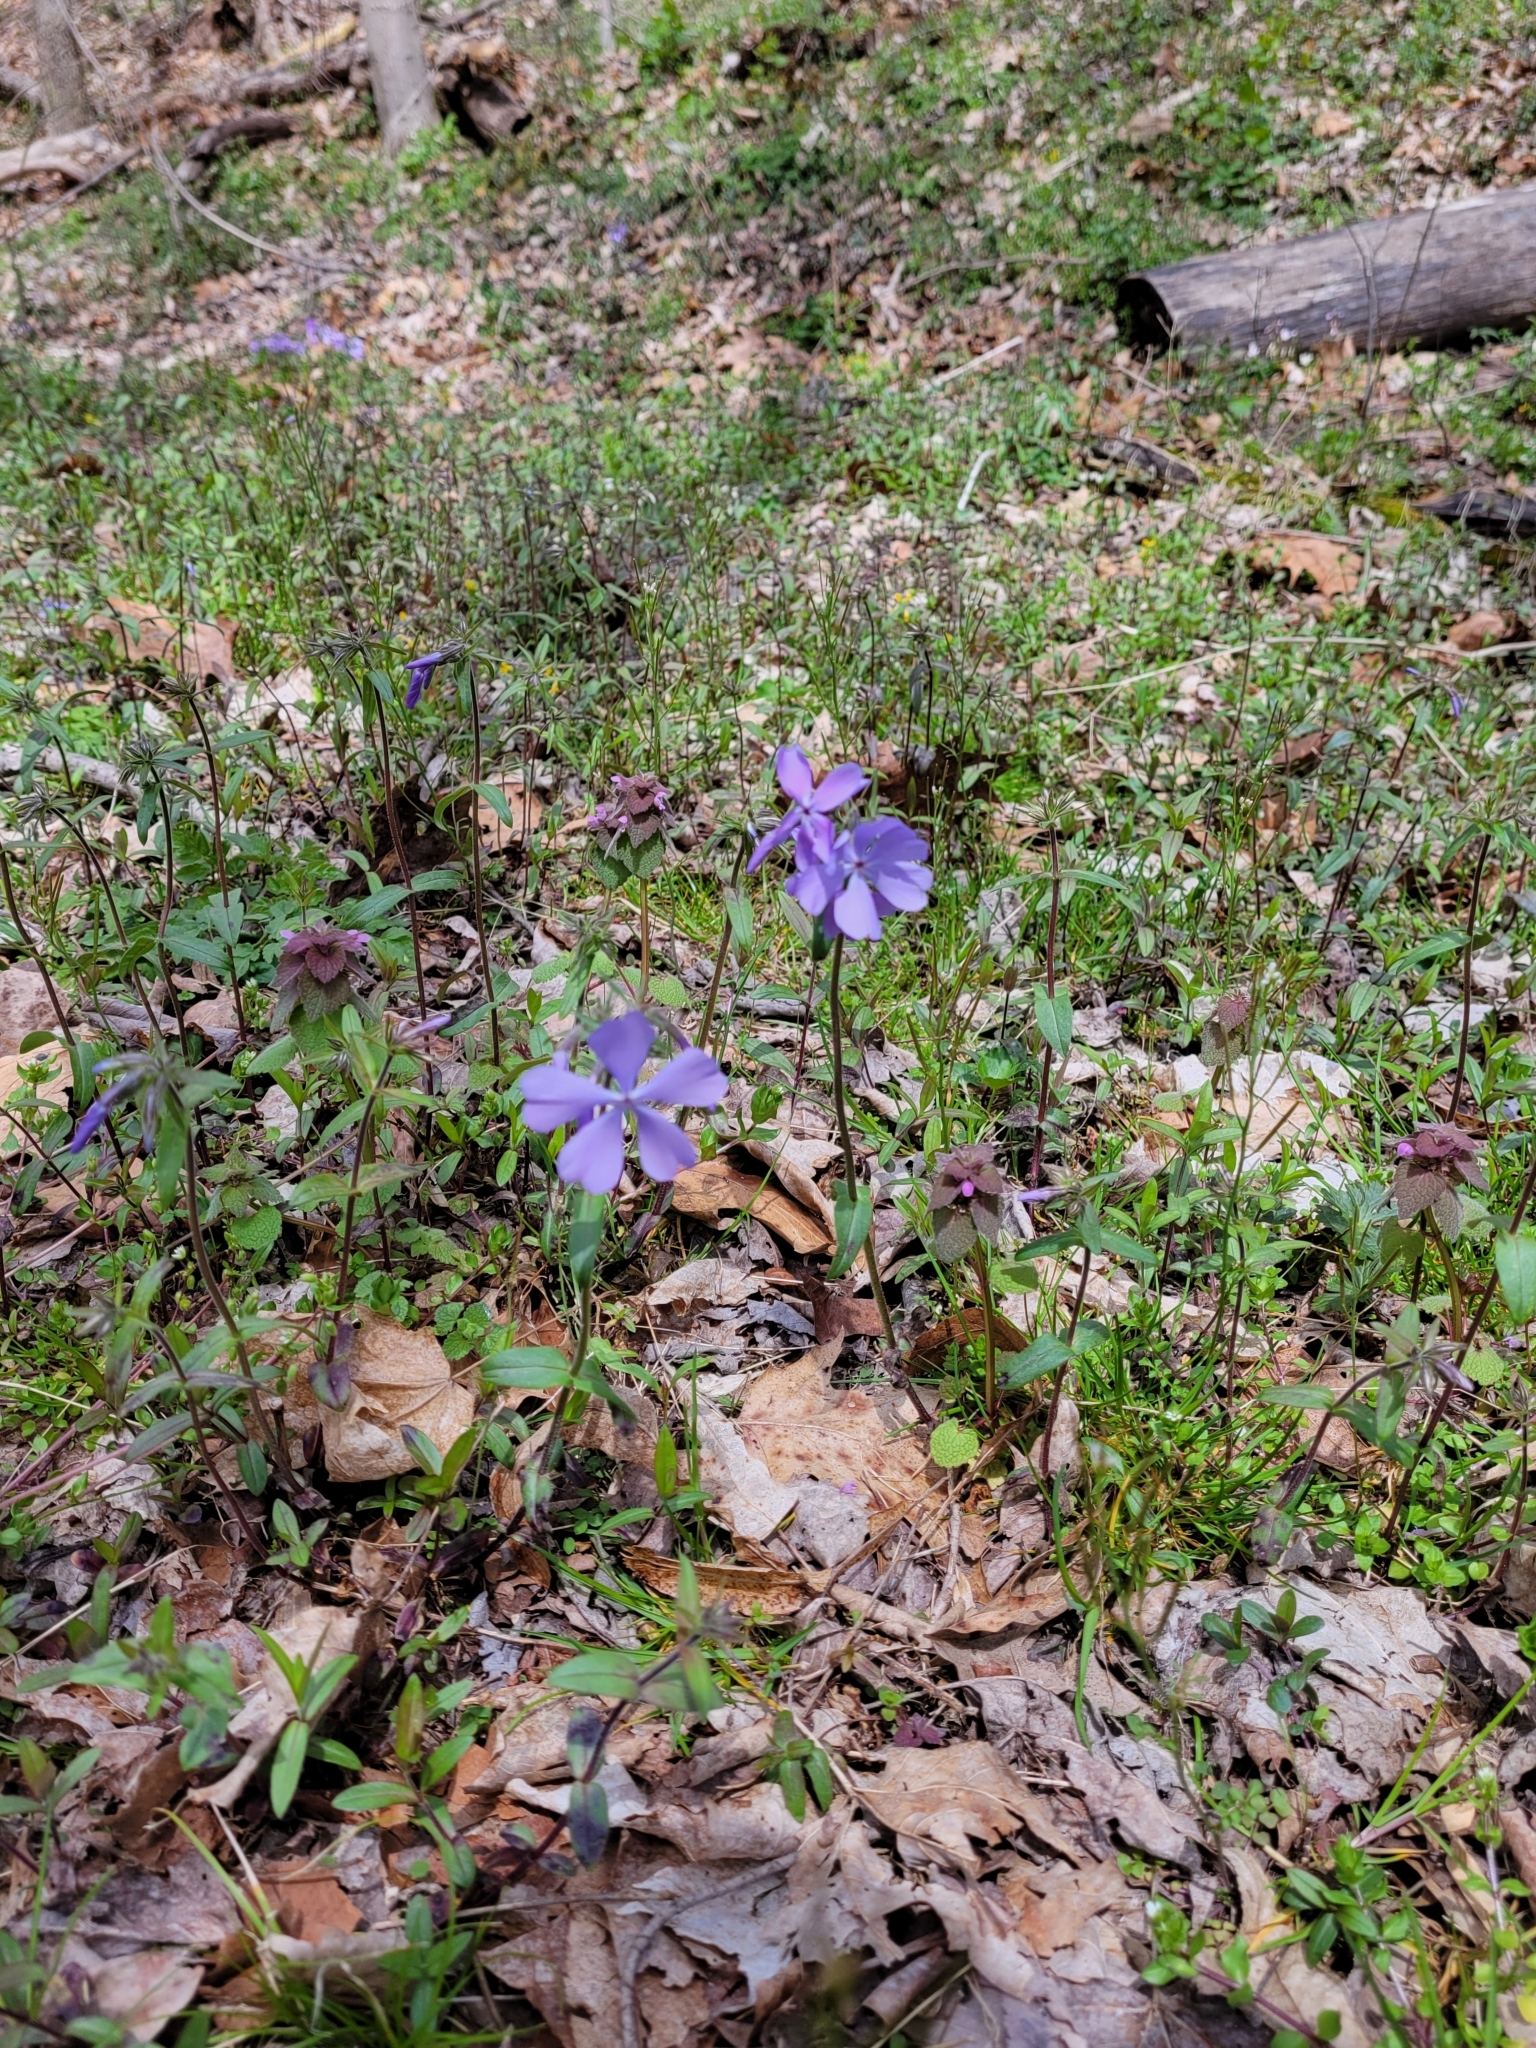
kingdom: Plantae
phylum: Tracheophyta
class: Magnoliopsida
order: Ericales
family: Polemoniaceae
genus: Phlox
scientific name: Phlox divaricata
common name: Blue phlox
